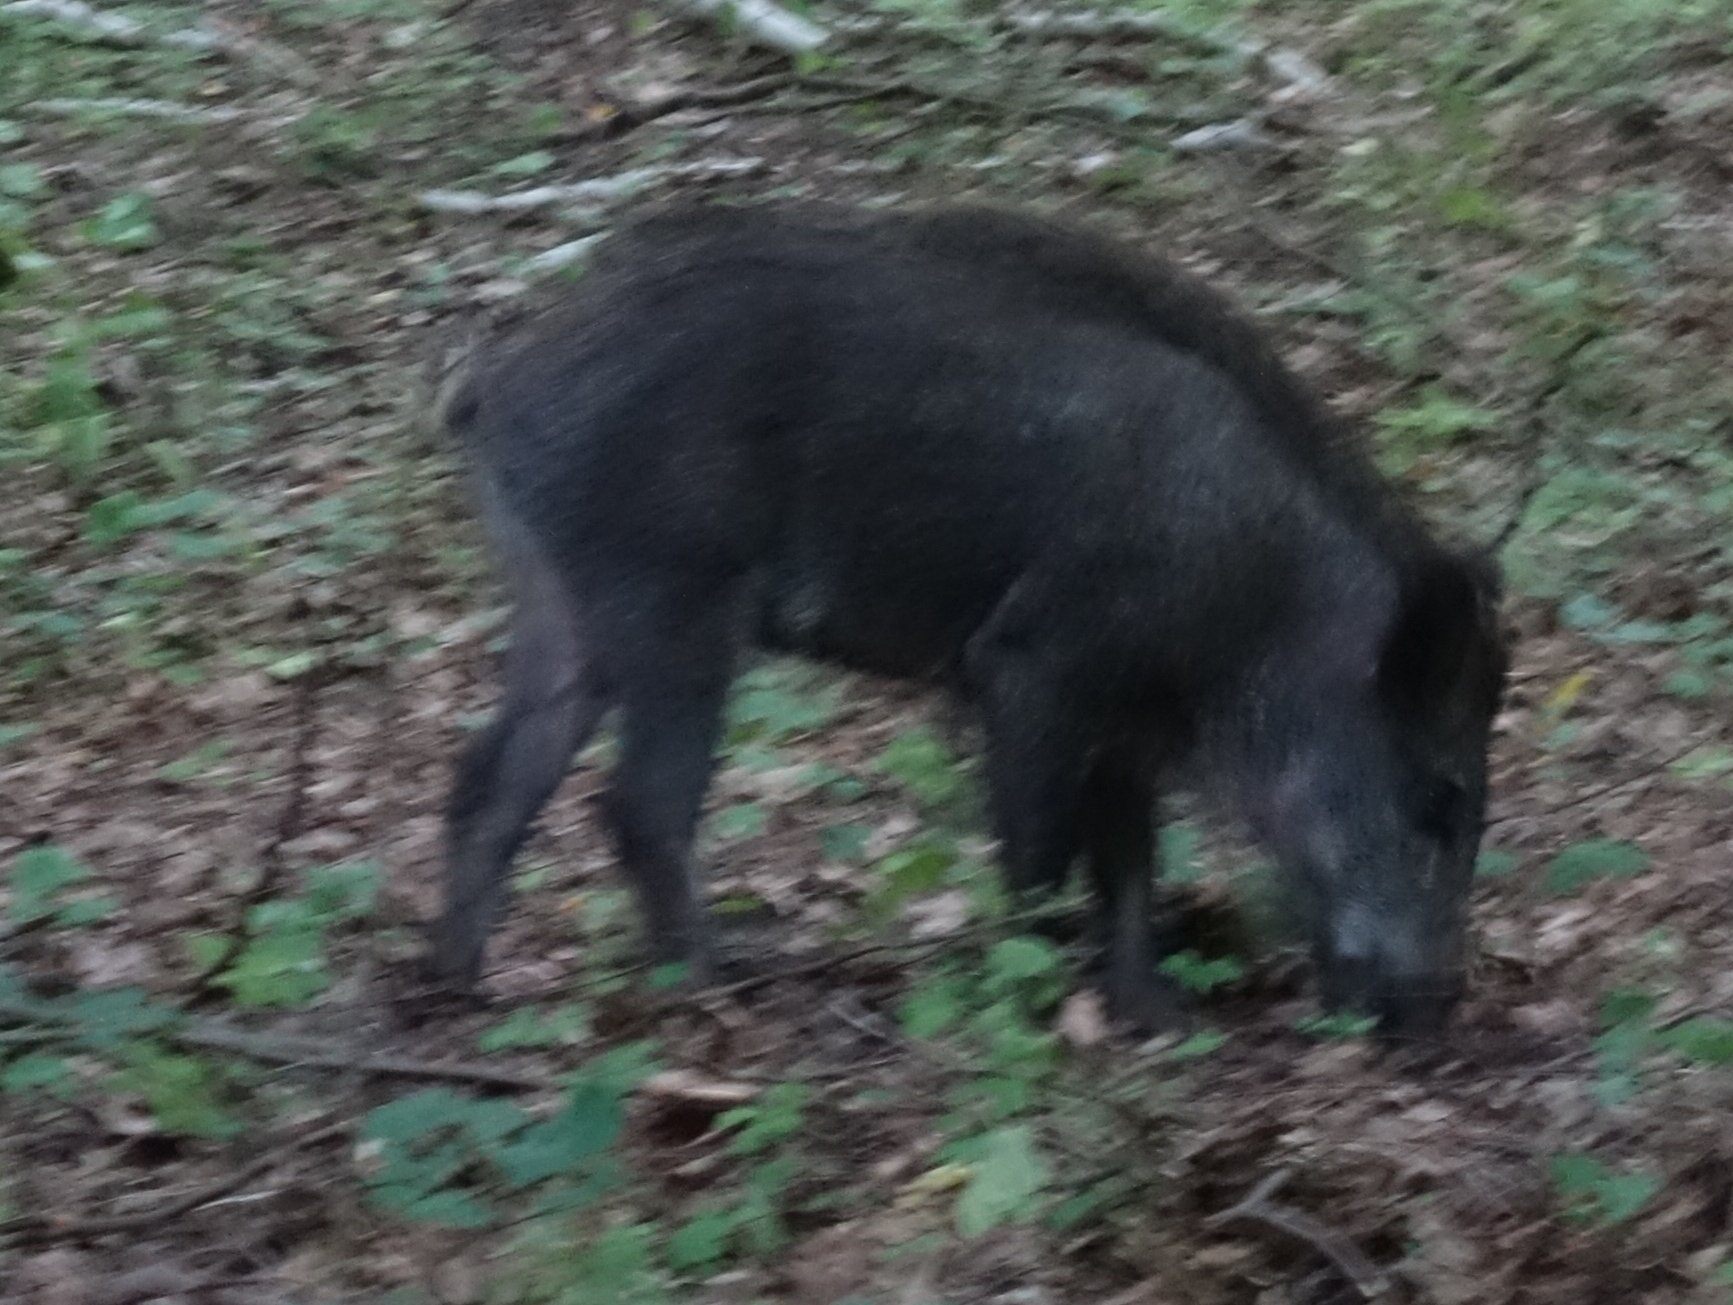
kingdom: Animalia
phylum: Chordata
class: Mammalia
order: Artiodactyla
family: Suidae
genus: Sus
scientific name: Sus scrofa
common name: Wild boar
